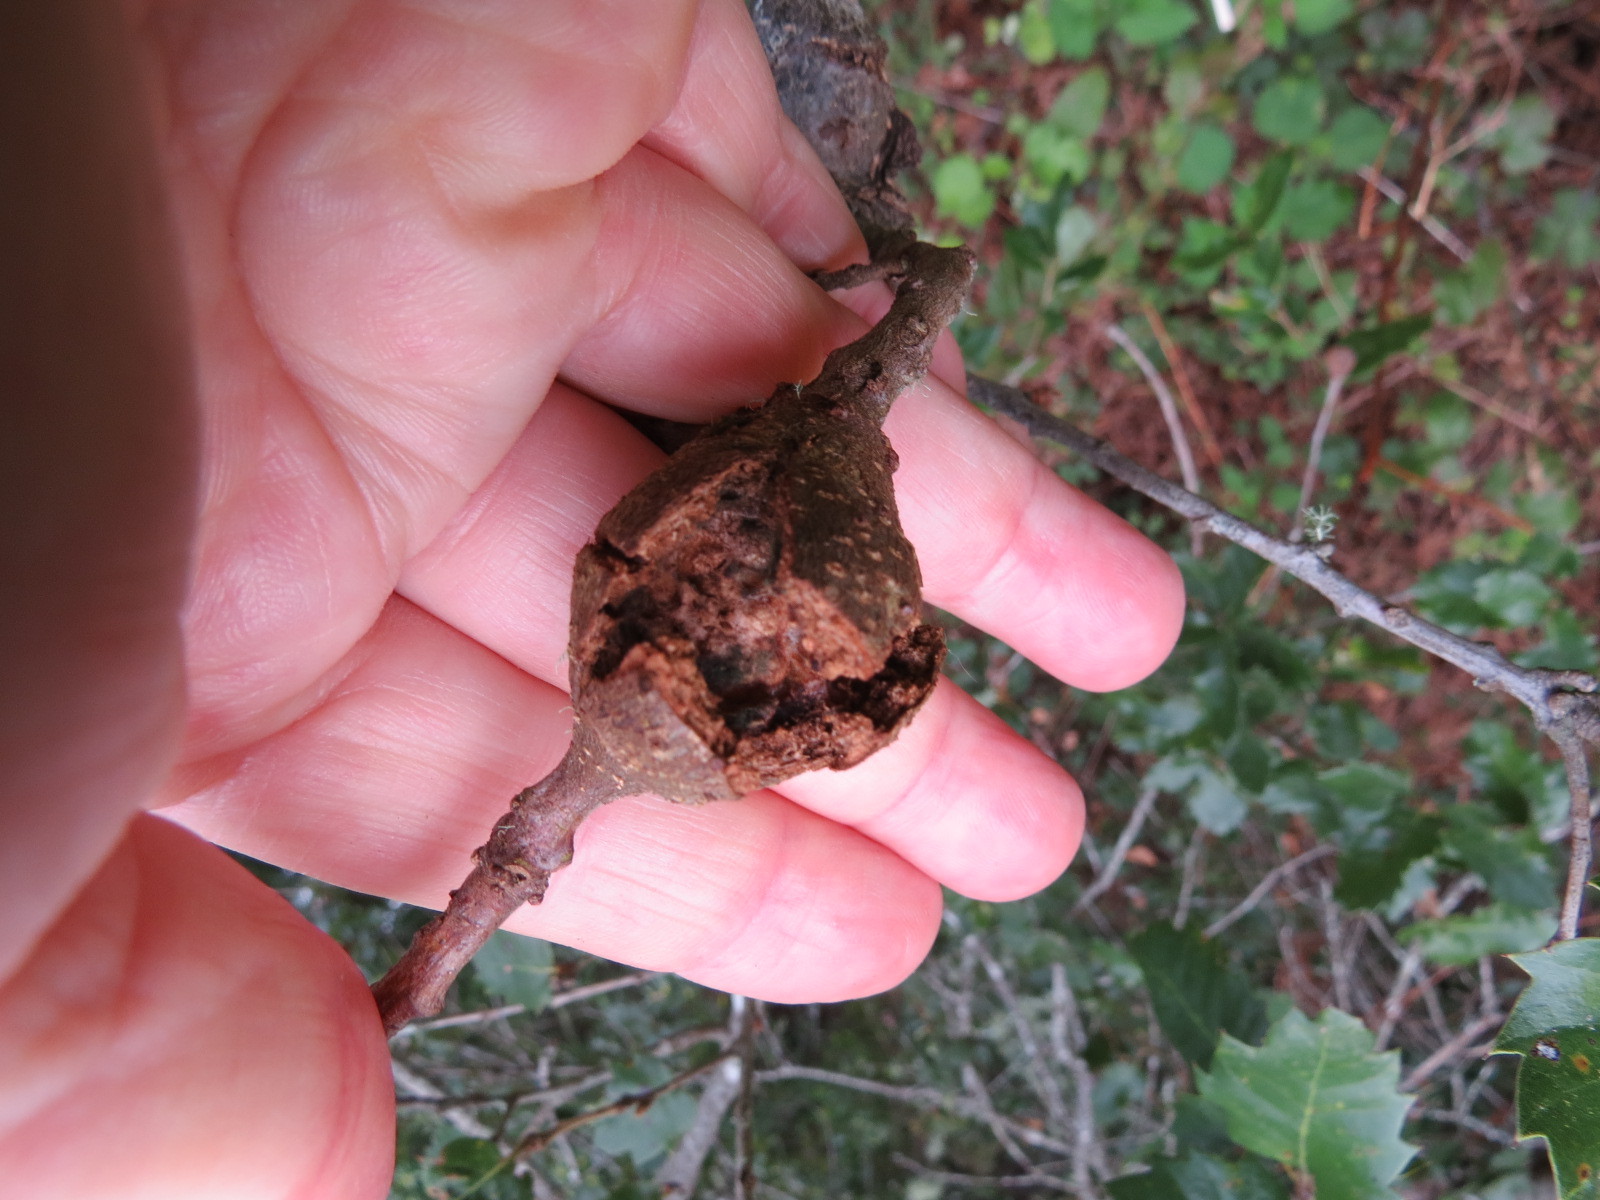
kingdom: Animalia
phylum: Arthropoda
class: Insecta
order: Hymenoptera
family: Cynipidae
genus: Dryocosmus
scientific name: Dryocosmus
